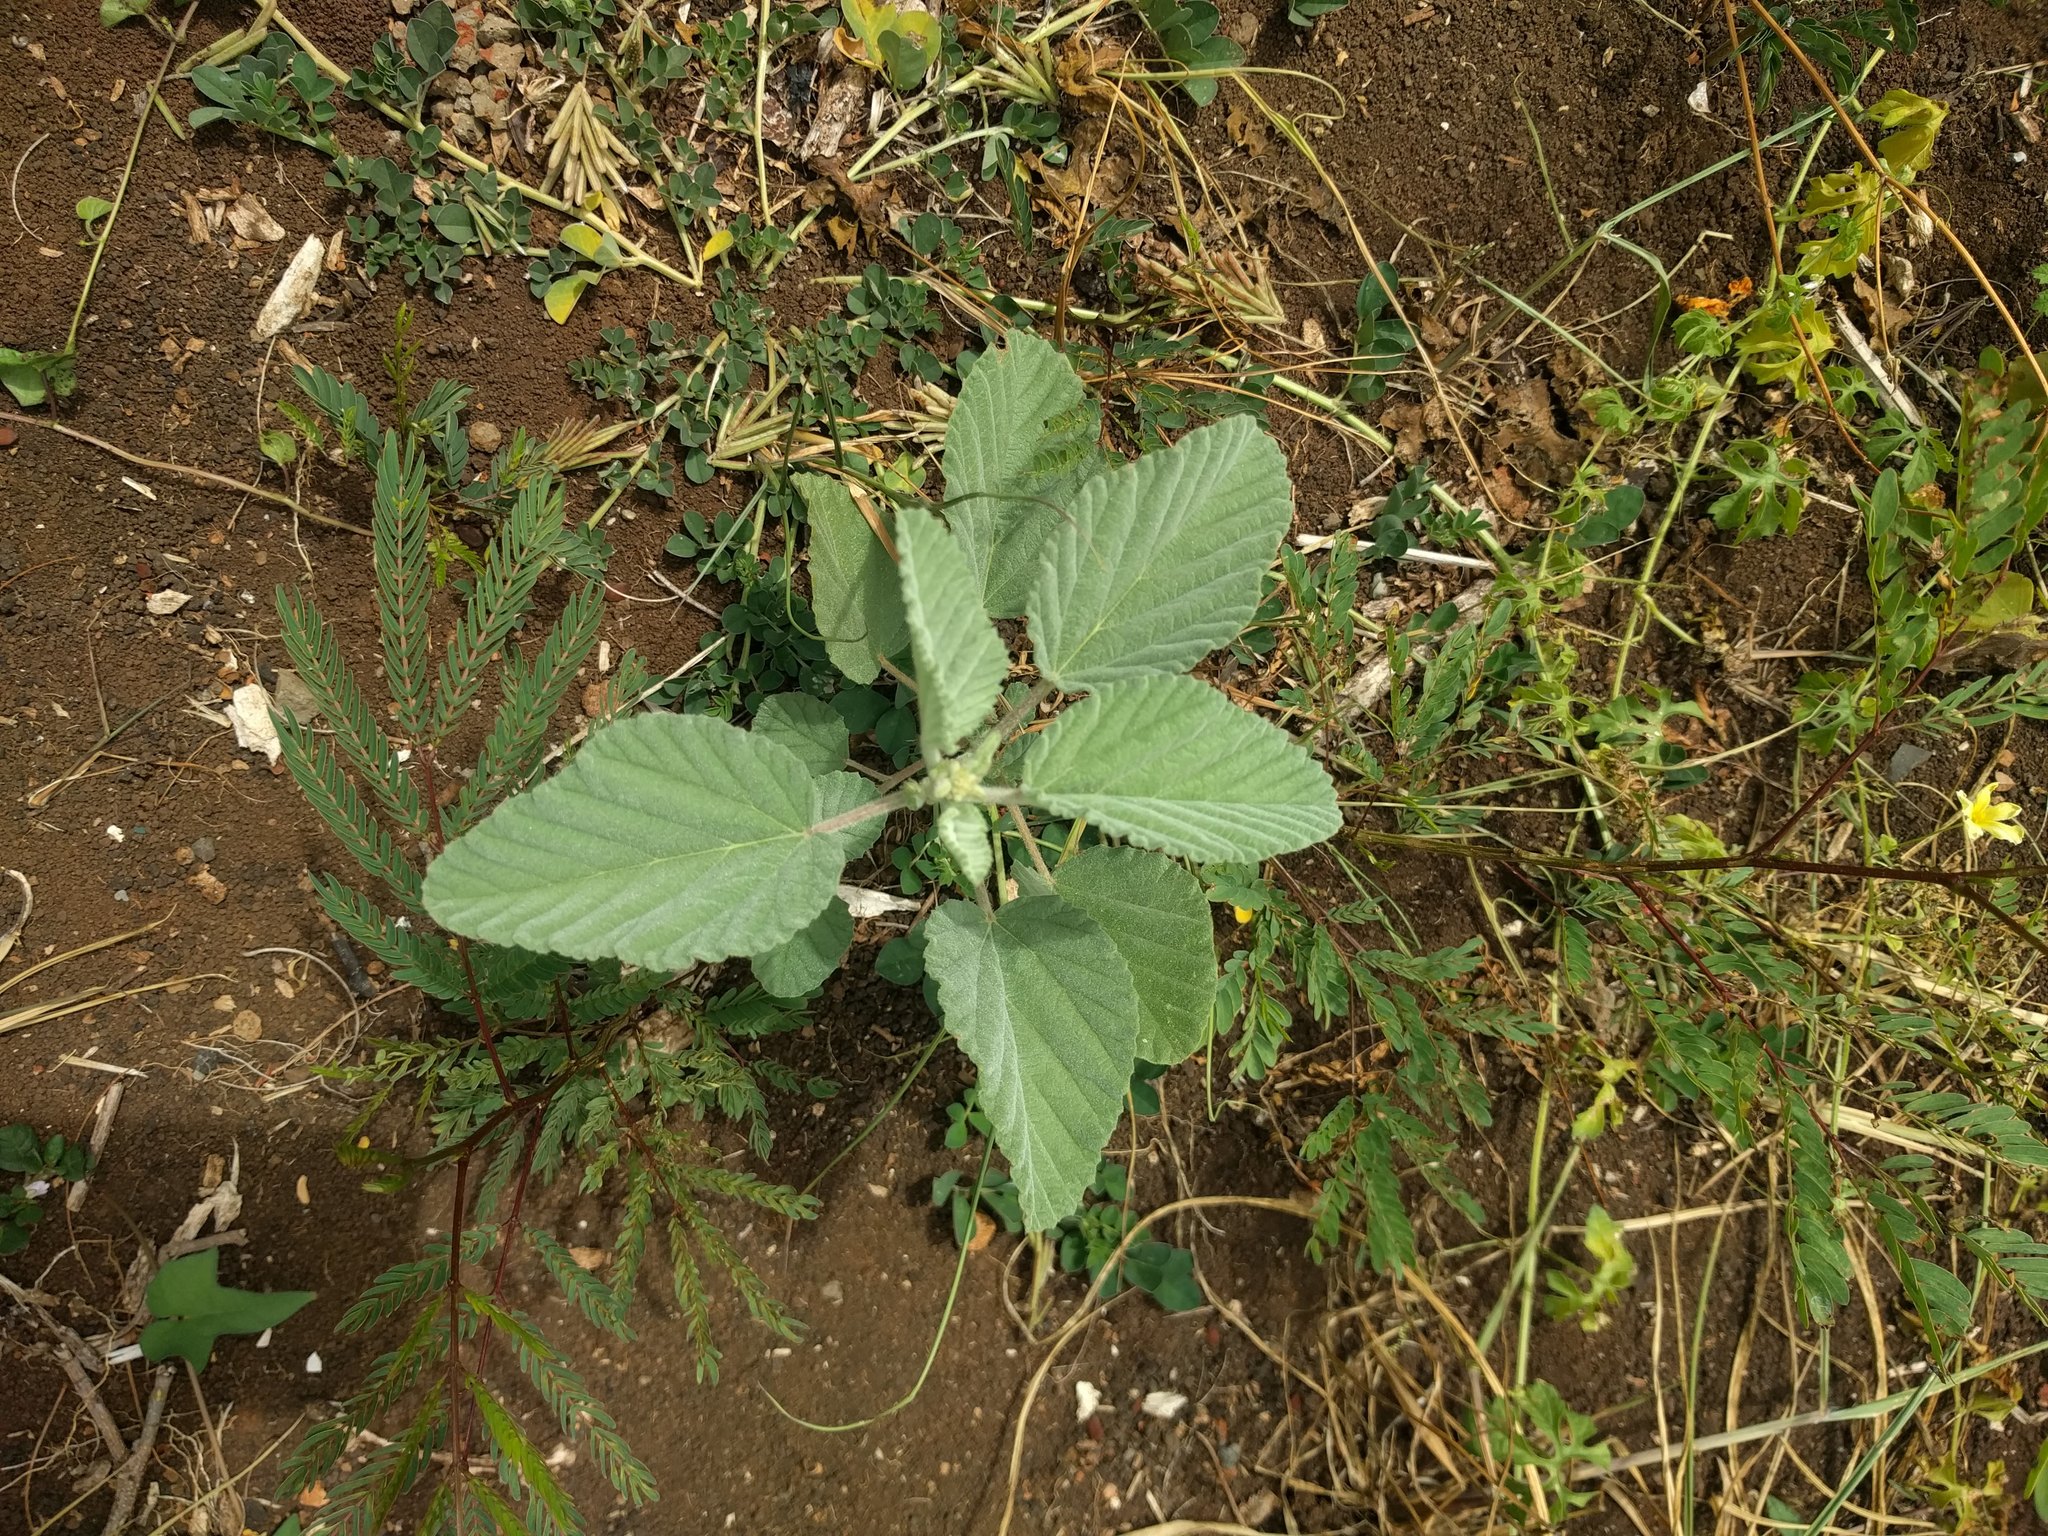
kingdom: Plantae
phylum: Tracheophyta
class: Magnoliopsida
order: Malvales
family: Malvaceae
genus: Waltheria
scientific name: Waltheria indica
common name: Leather-coat
